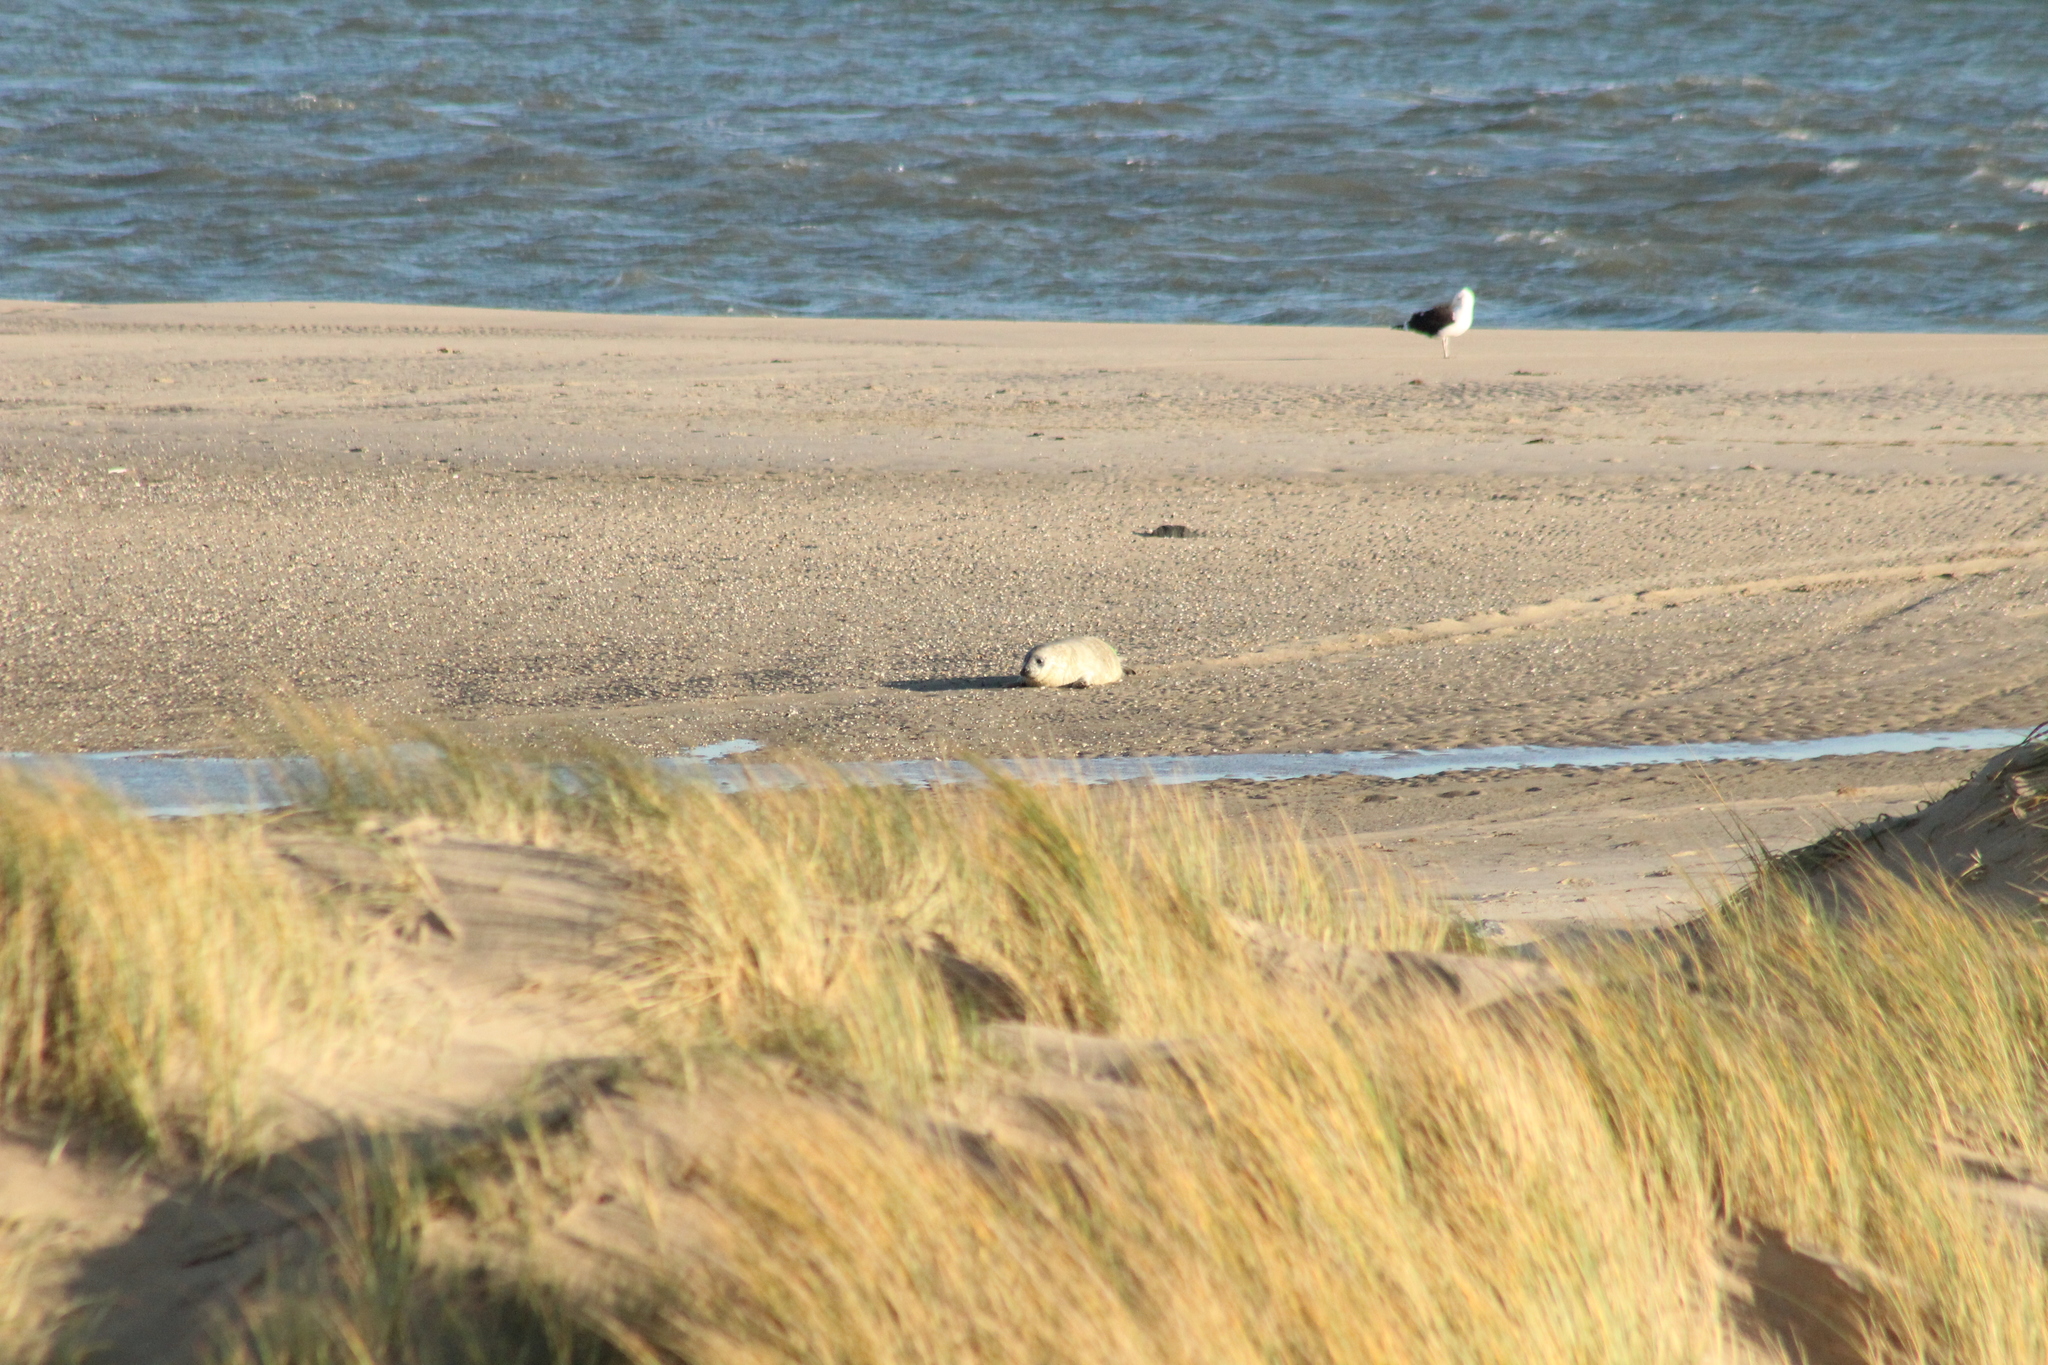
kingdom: Animalia
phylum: Chordata
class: Mammalia
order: Carnivora
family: Phocidae
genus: Halichoerus
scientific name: Halichoerus grypus
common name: Grey seal
